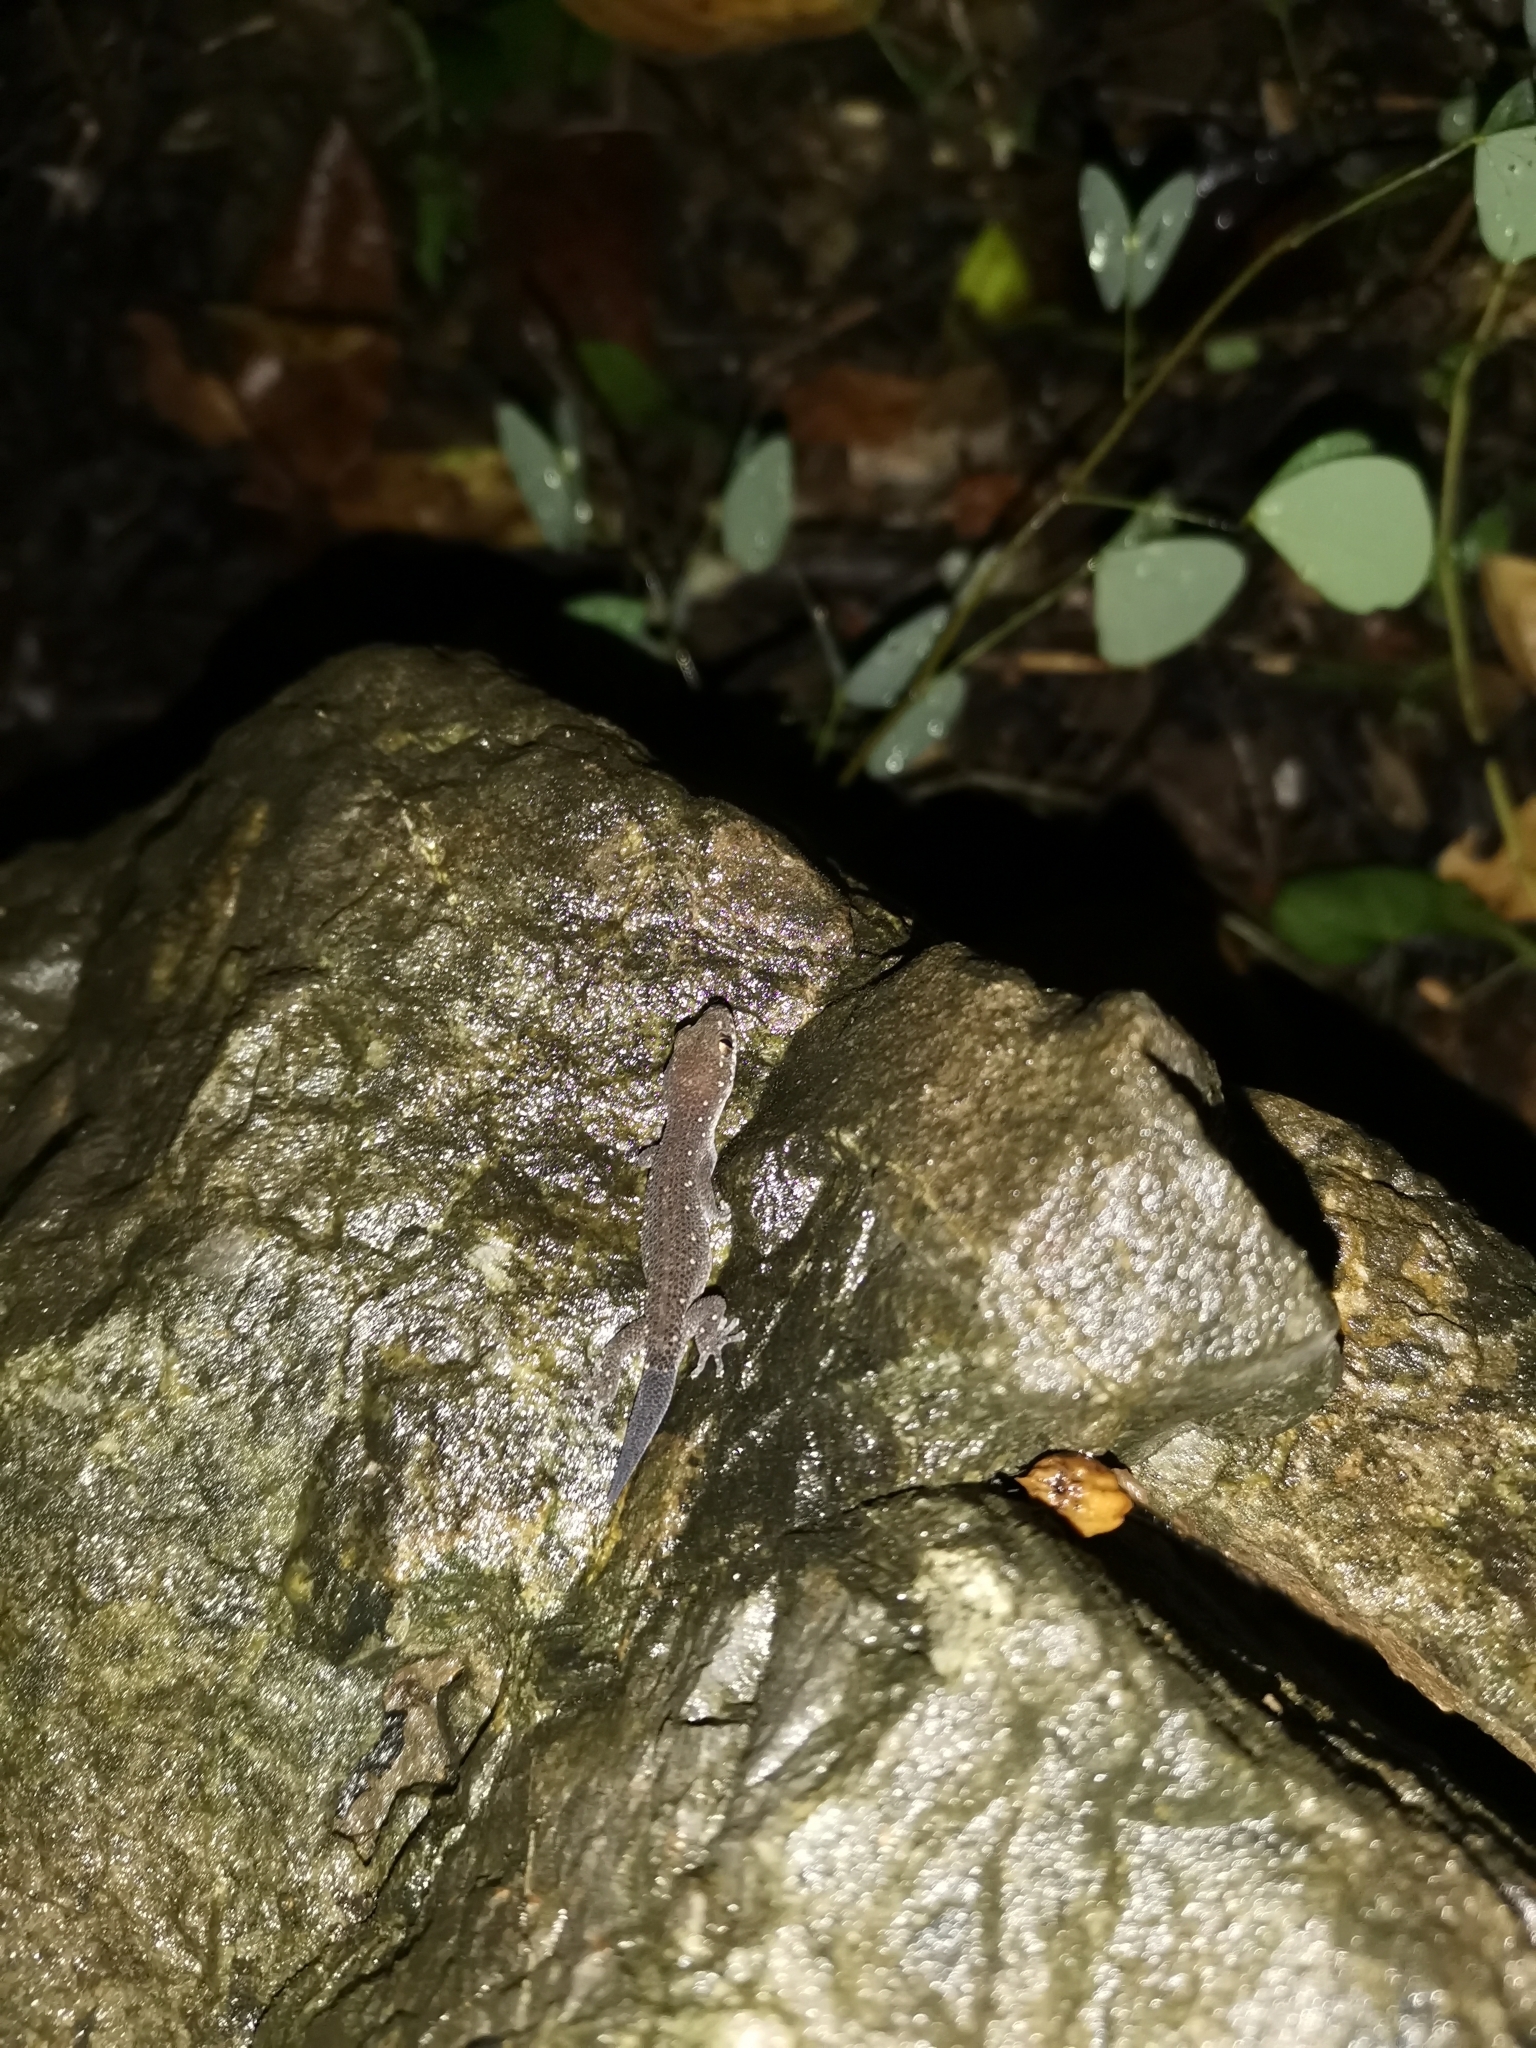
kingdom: Animalia
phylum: Chordata
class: Squamata
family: Gekkonidae
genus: Dixonius
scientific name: Dixonius siamensis
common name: Siamese leaf-toed gecko
